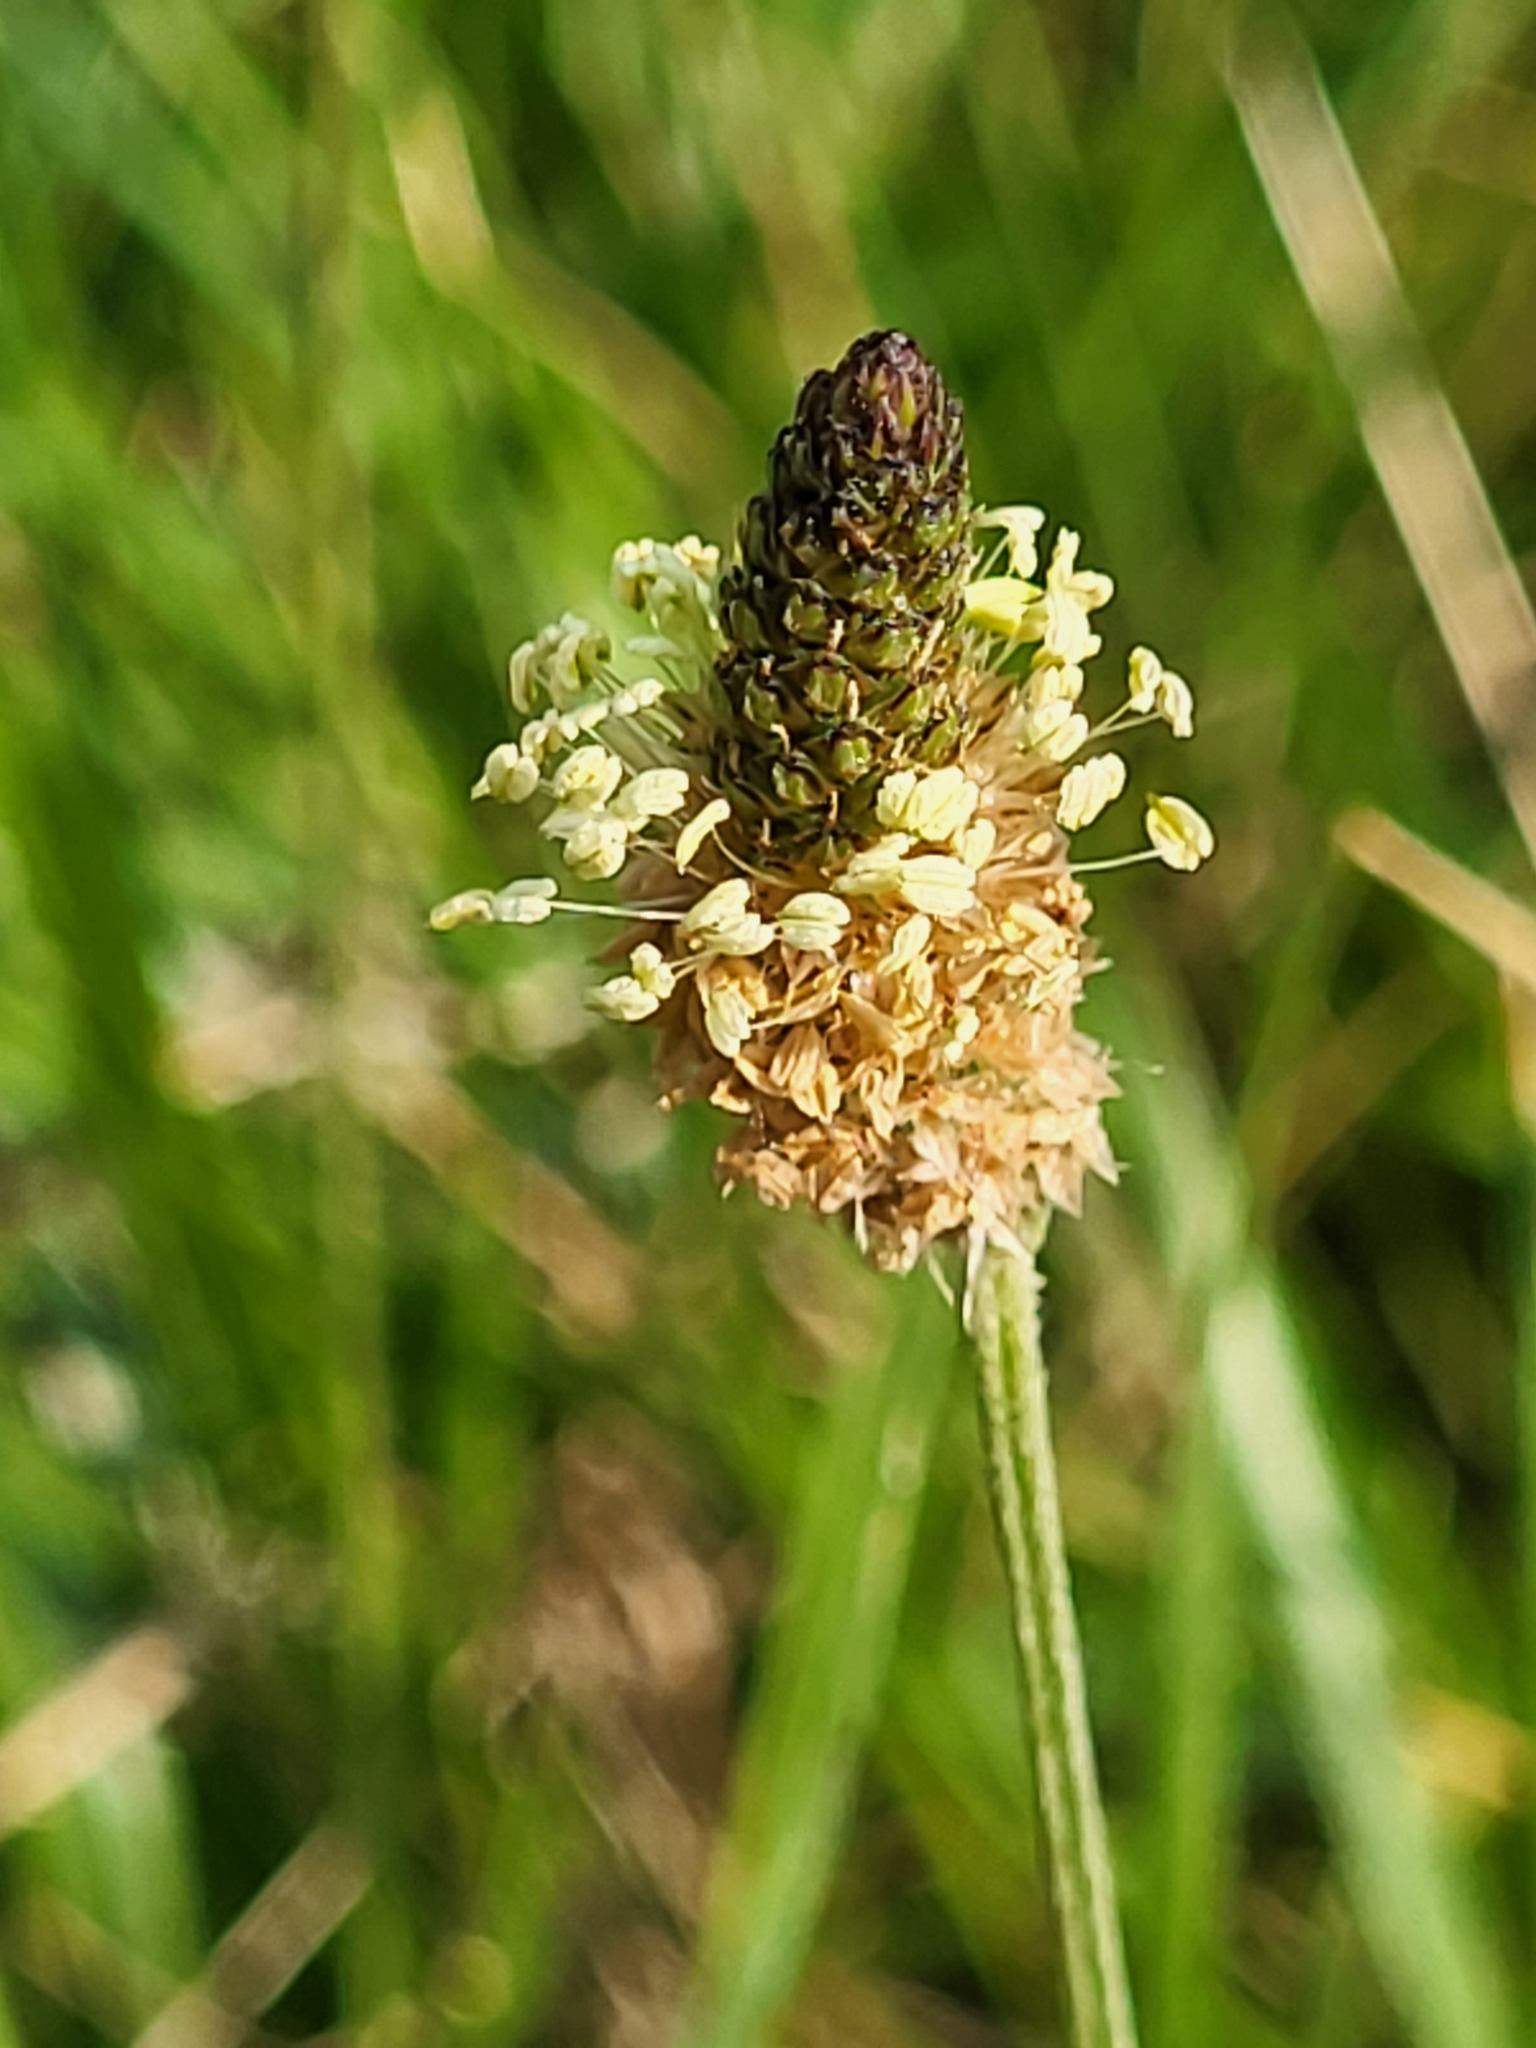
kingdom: Plantae
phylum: Tracheophyta
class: Magnoliopsida
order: Lamiales
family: Plantaginaceae
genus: Plantago
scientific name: Plantago lanceolata
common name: Ribwort plantain
